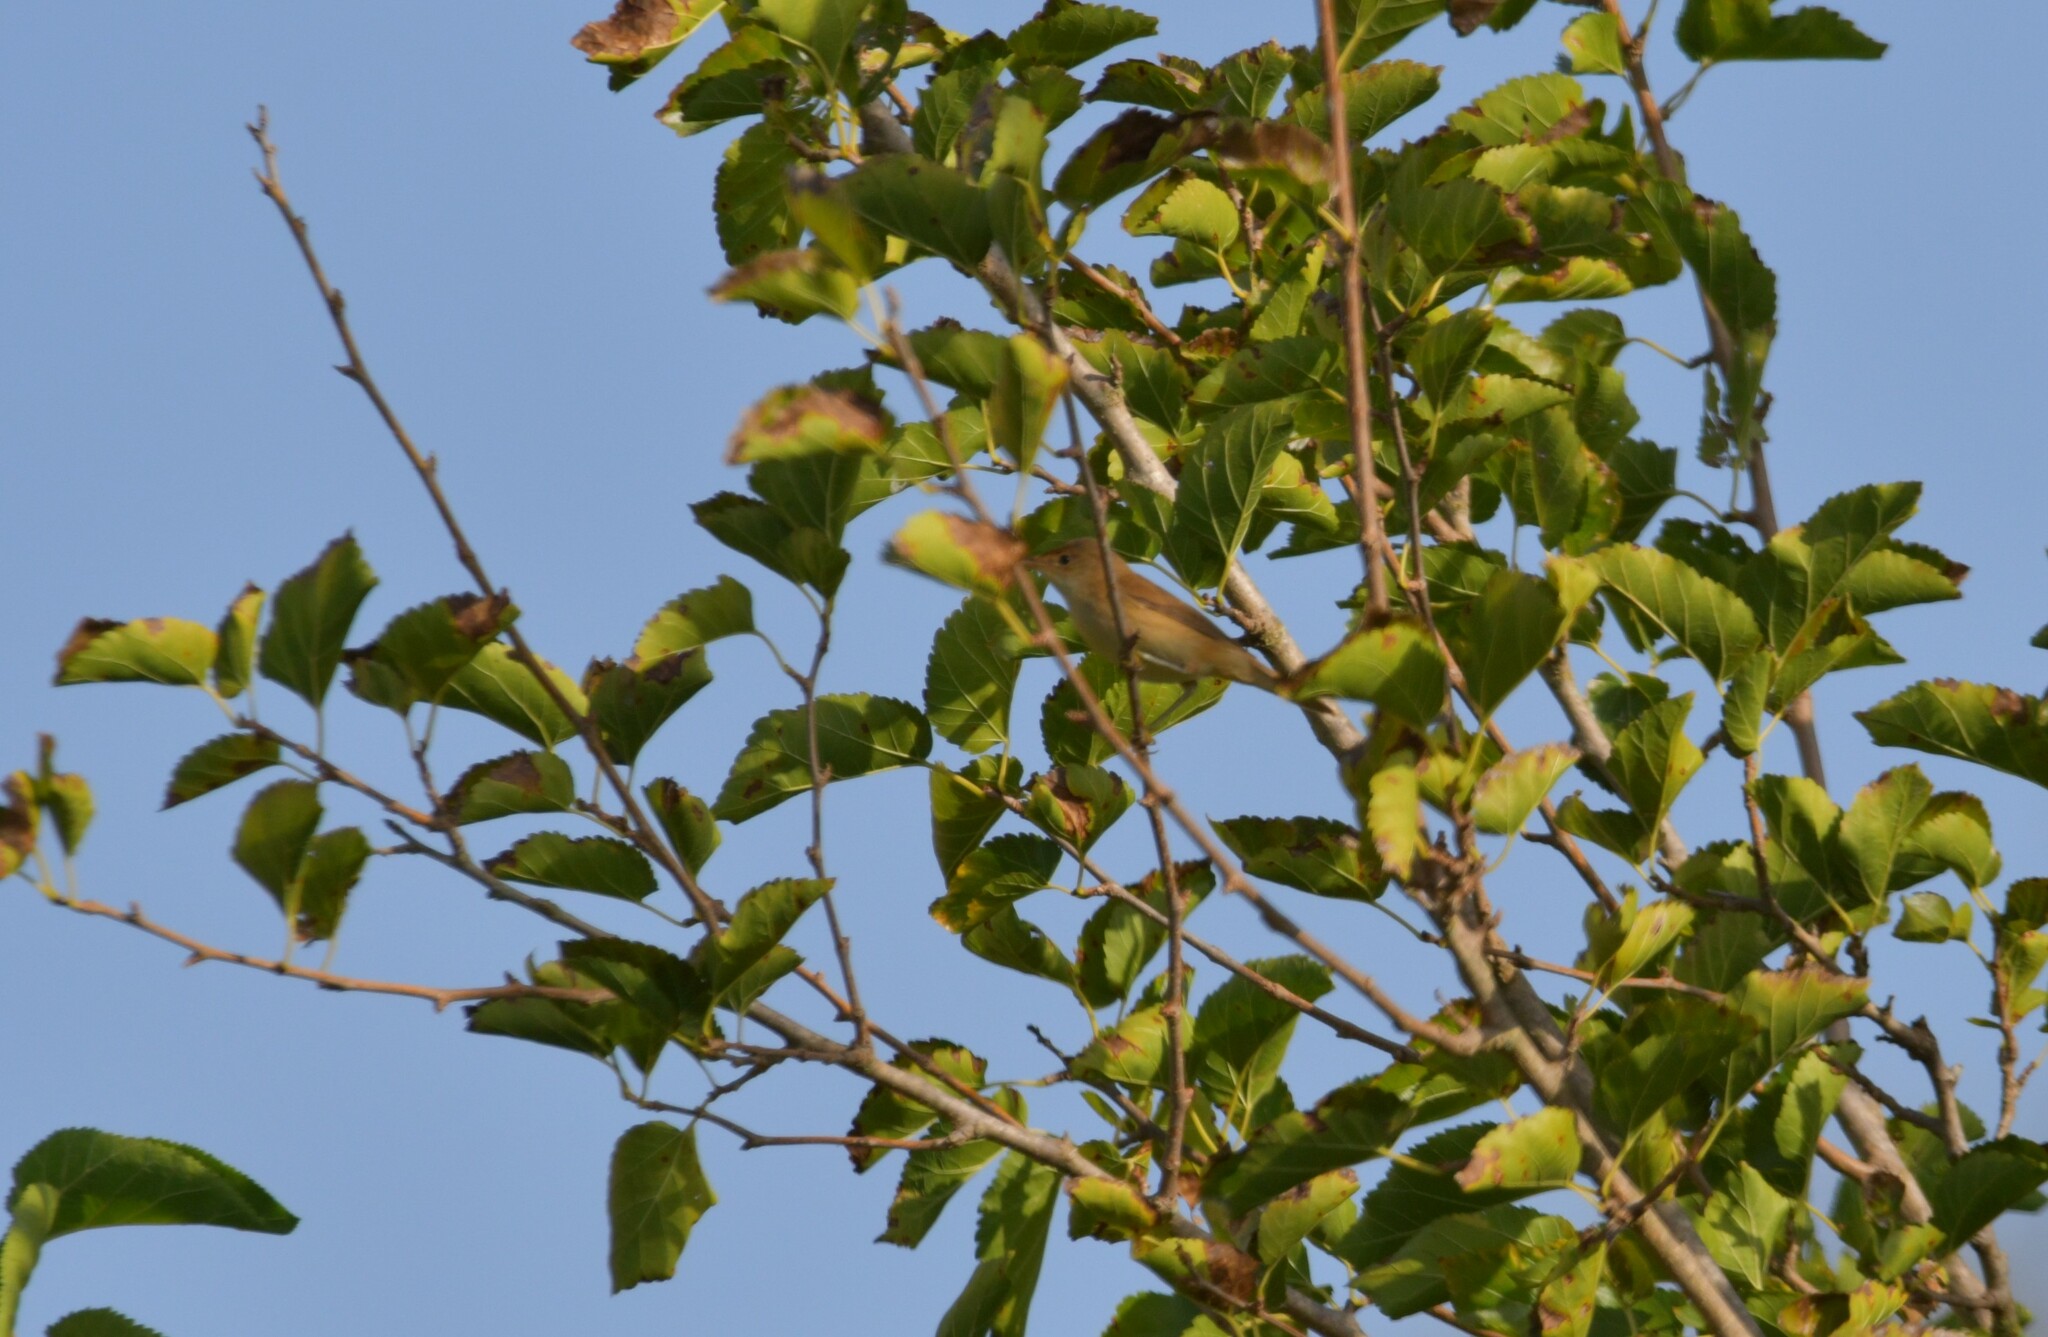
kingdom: Animalia
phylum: Chordata
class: Aves
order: Passeriformes
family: Acrocephalidae
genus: Acrocephalus
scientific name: Acrocephalus scirpaceus
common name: Eurasian reed warbler
